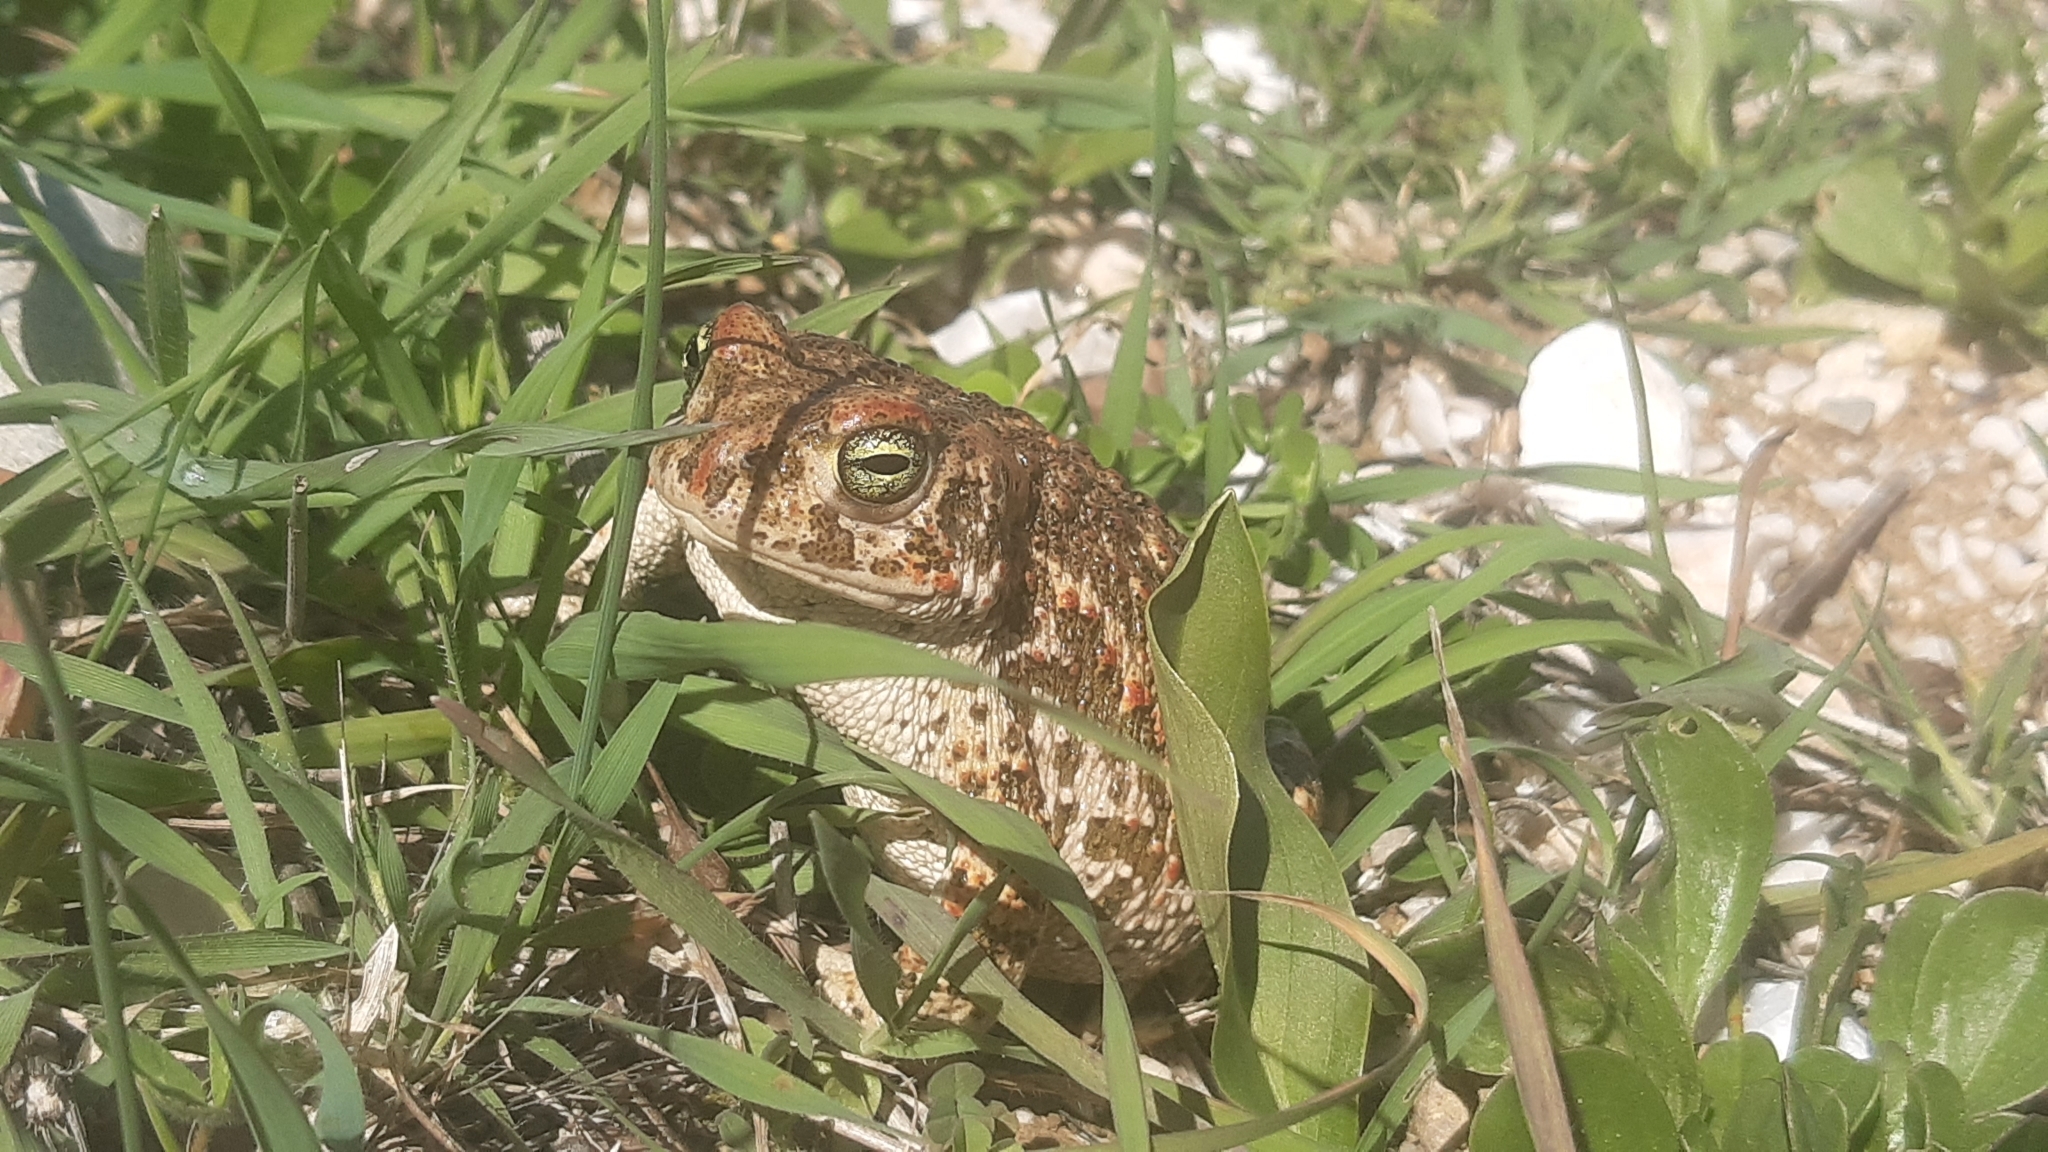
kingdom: Animalia
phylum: Chordata
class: Amphibia
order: Anura
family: Bufonidae
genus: Epidalea
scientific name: Epidalea calamita
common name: Natterjack toad
